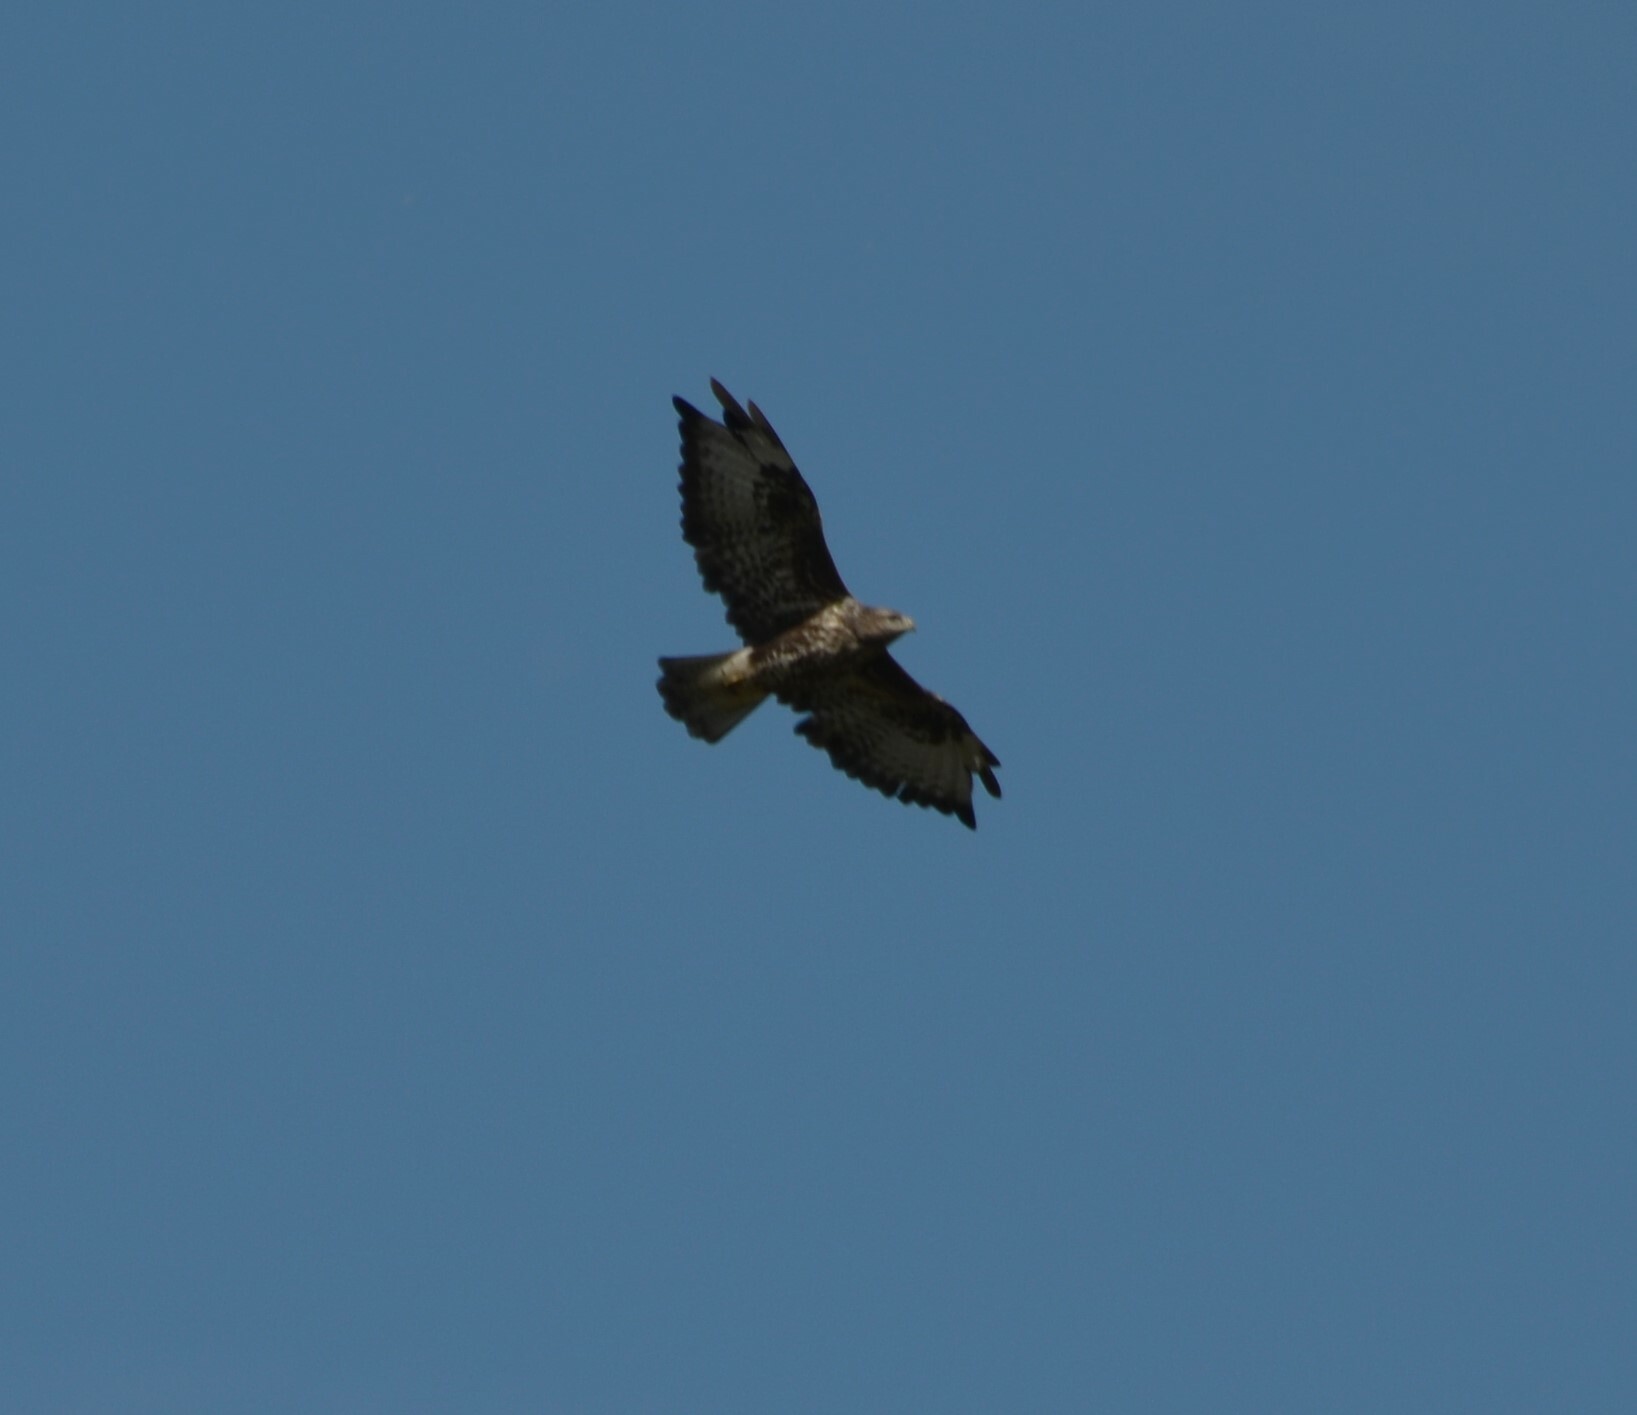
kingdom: Animalia
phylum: Chordata
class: Aves
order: Accipitriformes
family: Accipitridae
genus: Buteo
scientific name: Buteo buteo
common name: Common buzzard
